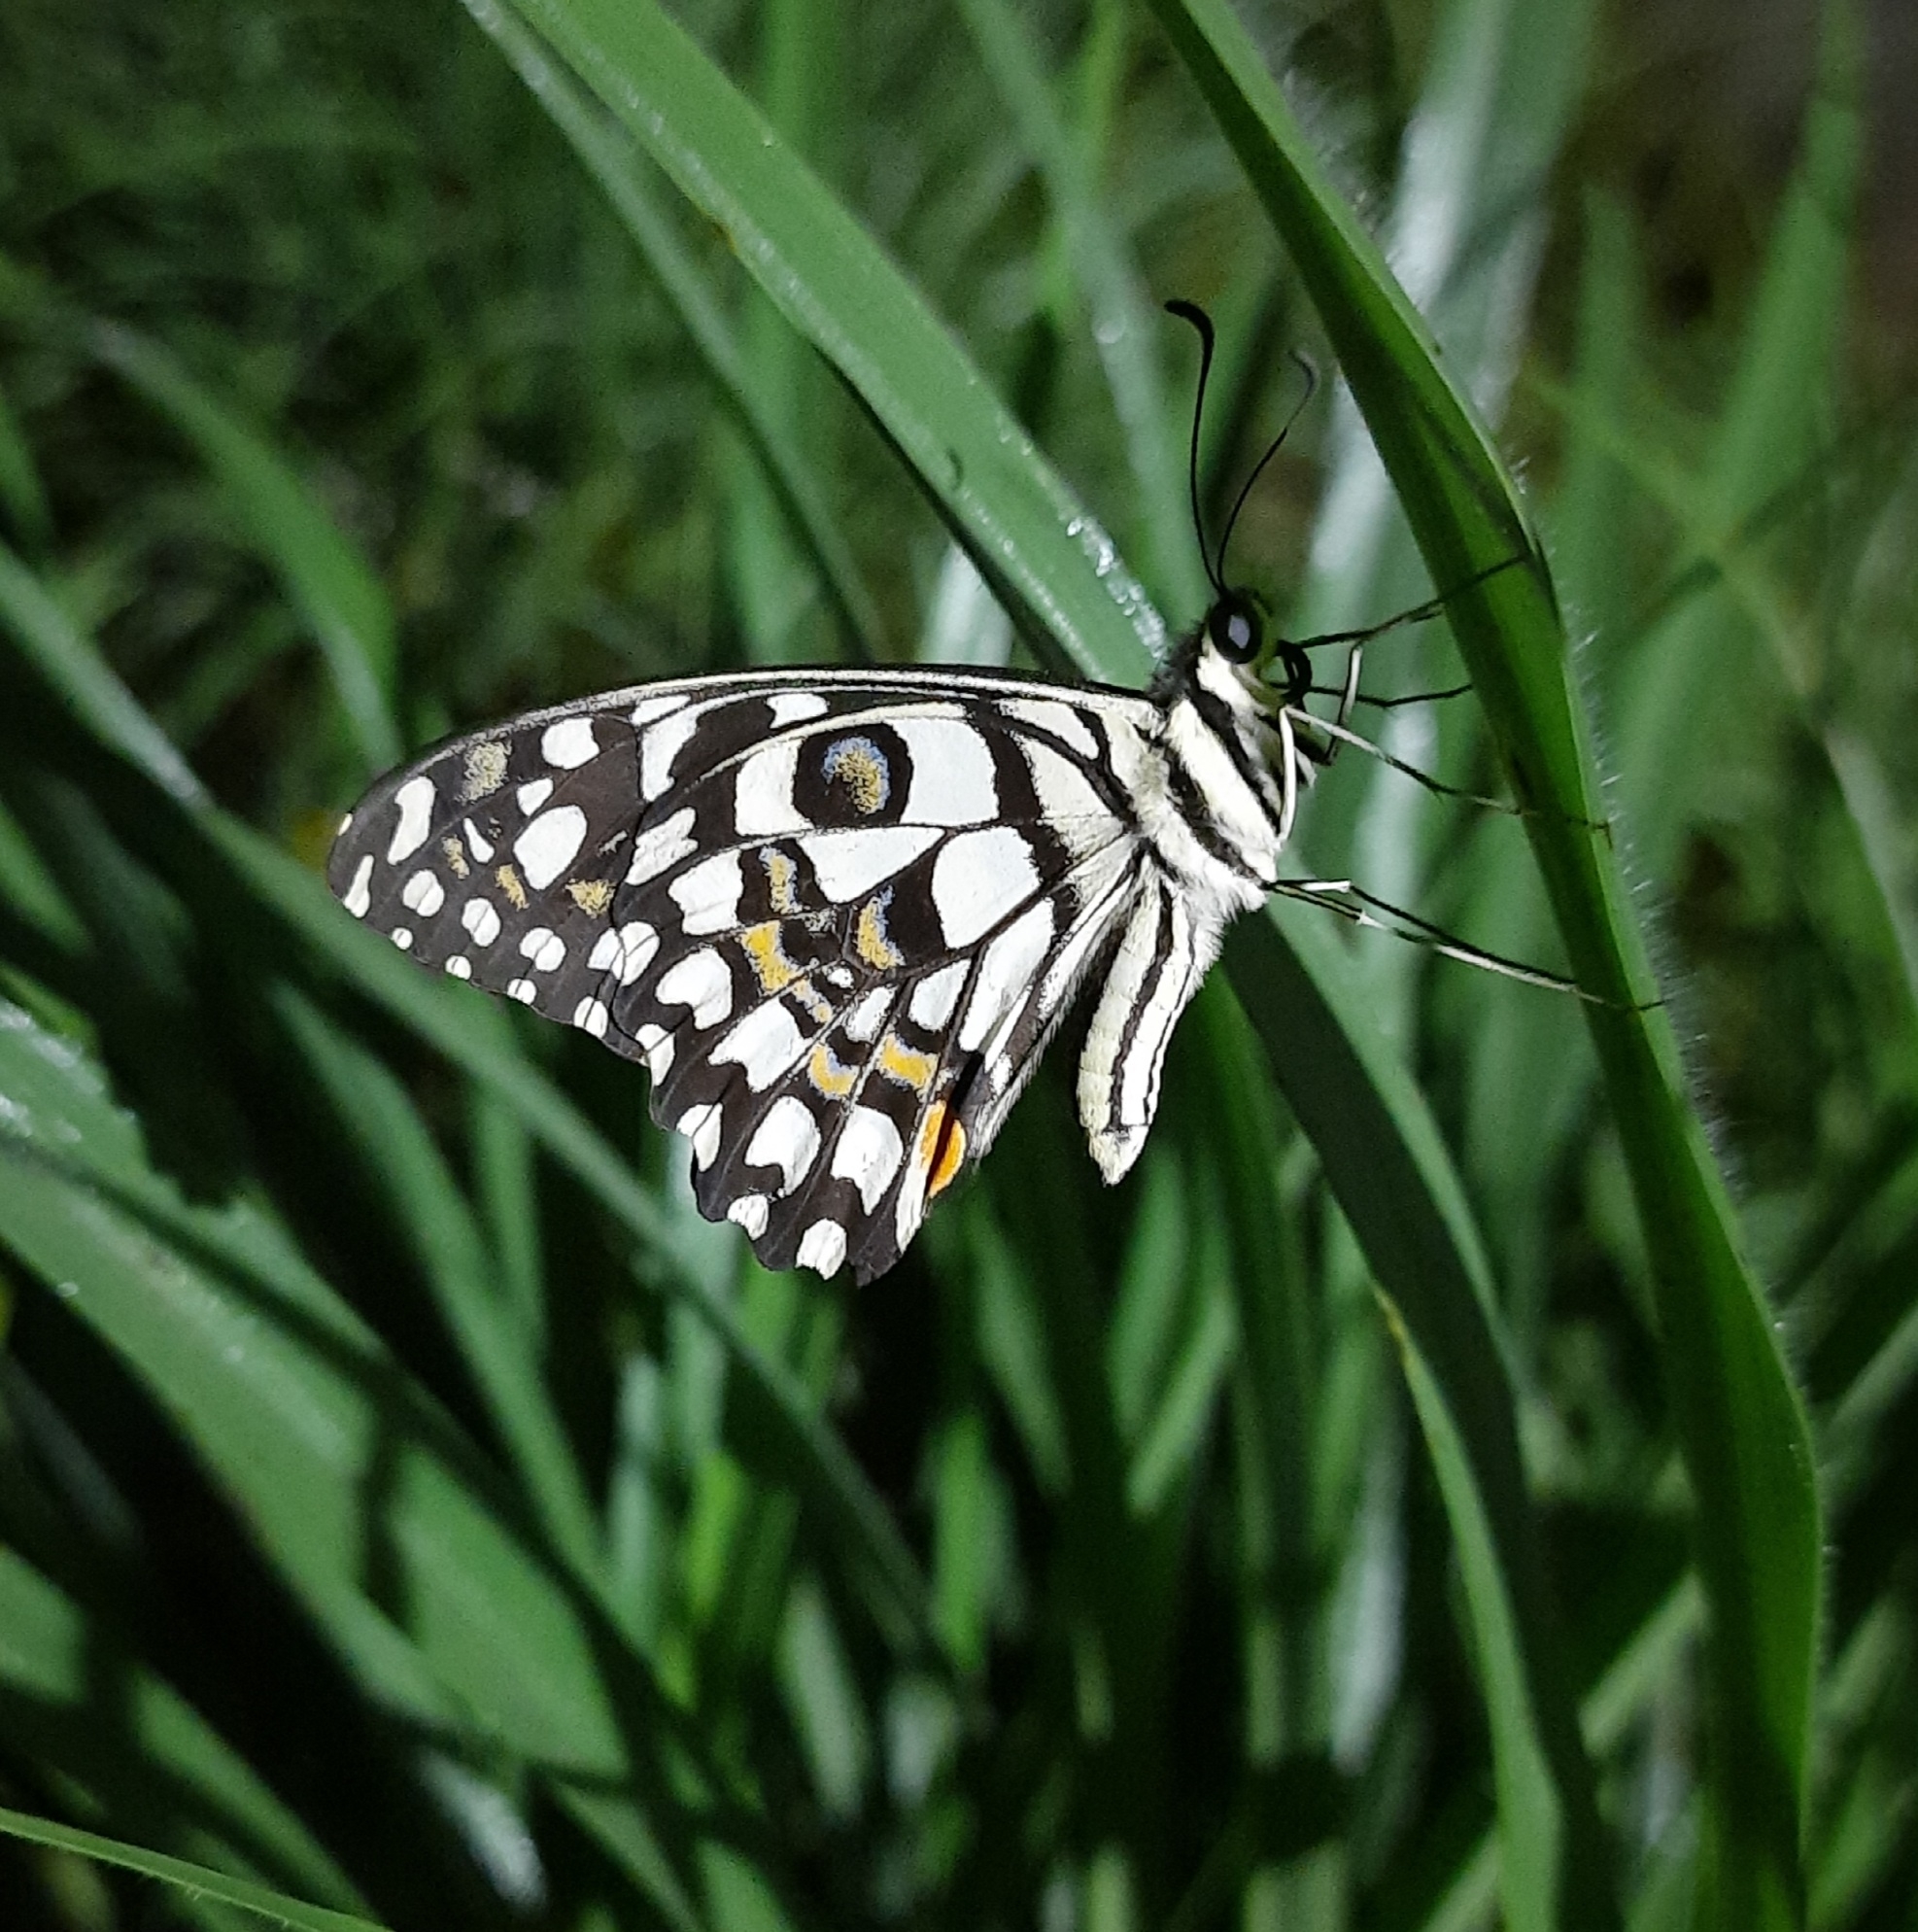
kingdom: Animalia
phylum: Arthropoda
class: Insecta
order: Lepidoptera
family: Papilionidae
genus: Papilio
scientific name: Papilio demoleus
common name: Lime butterfly
